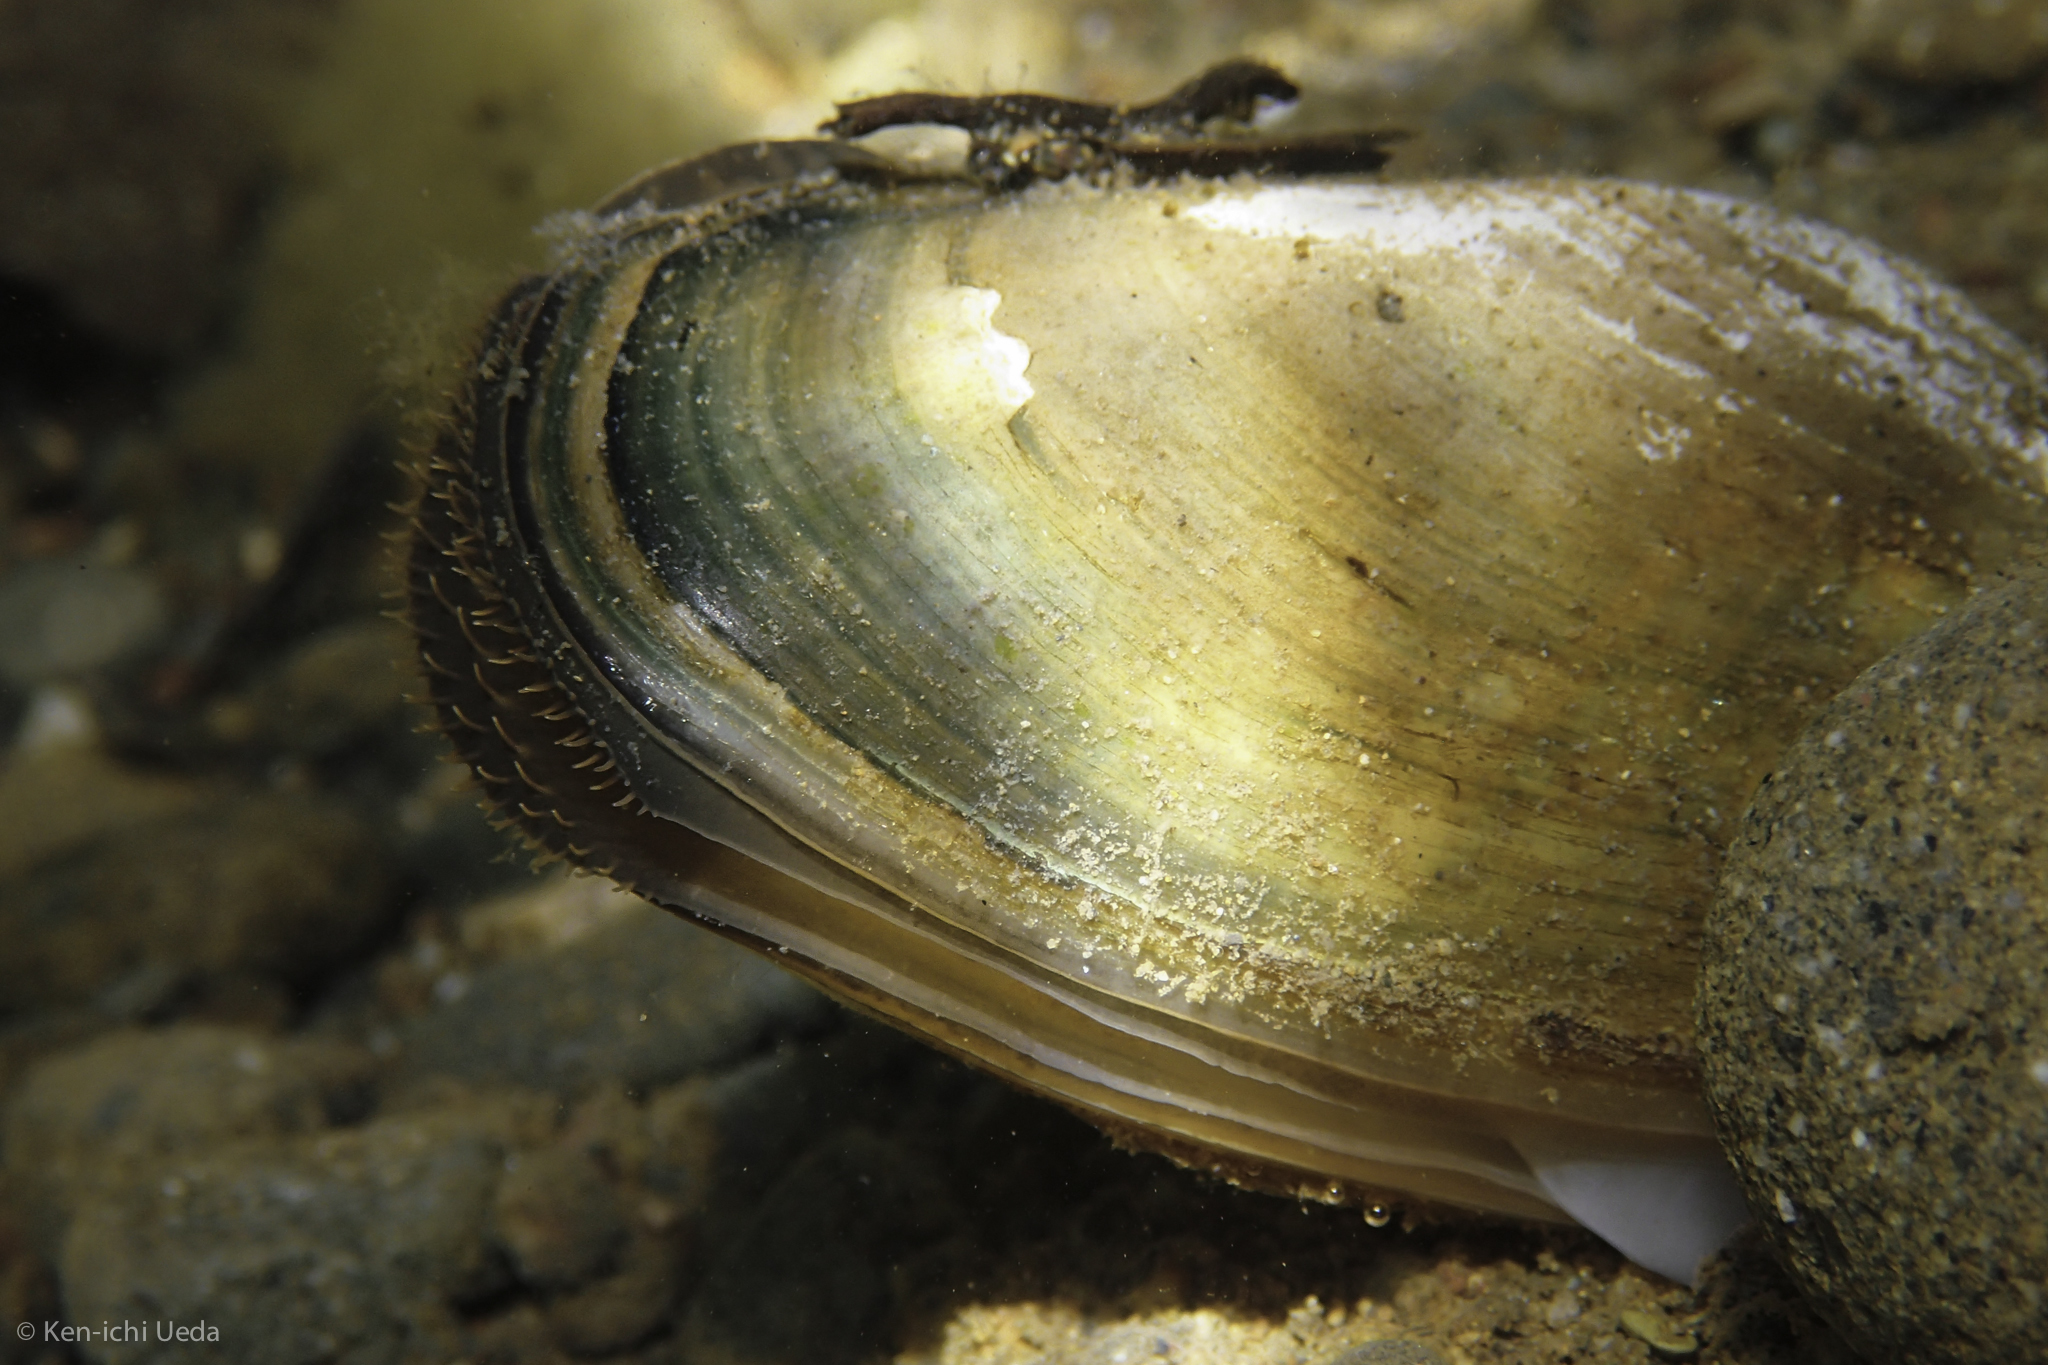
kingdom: Animalia
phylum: Mollusca
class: Bivalvia
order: Unionida
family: Unionidae
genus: Anodonta
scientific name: Anodonta californiensis
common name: California floater
